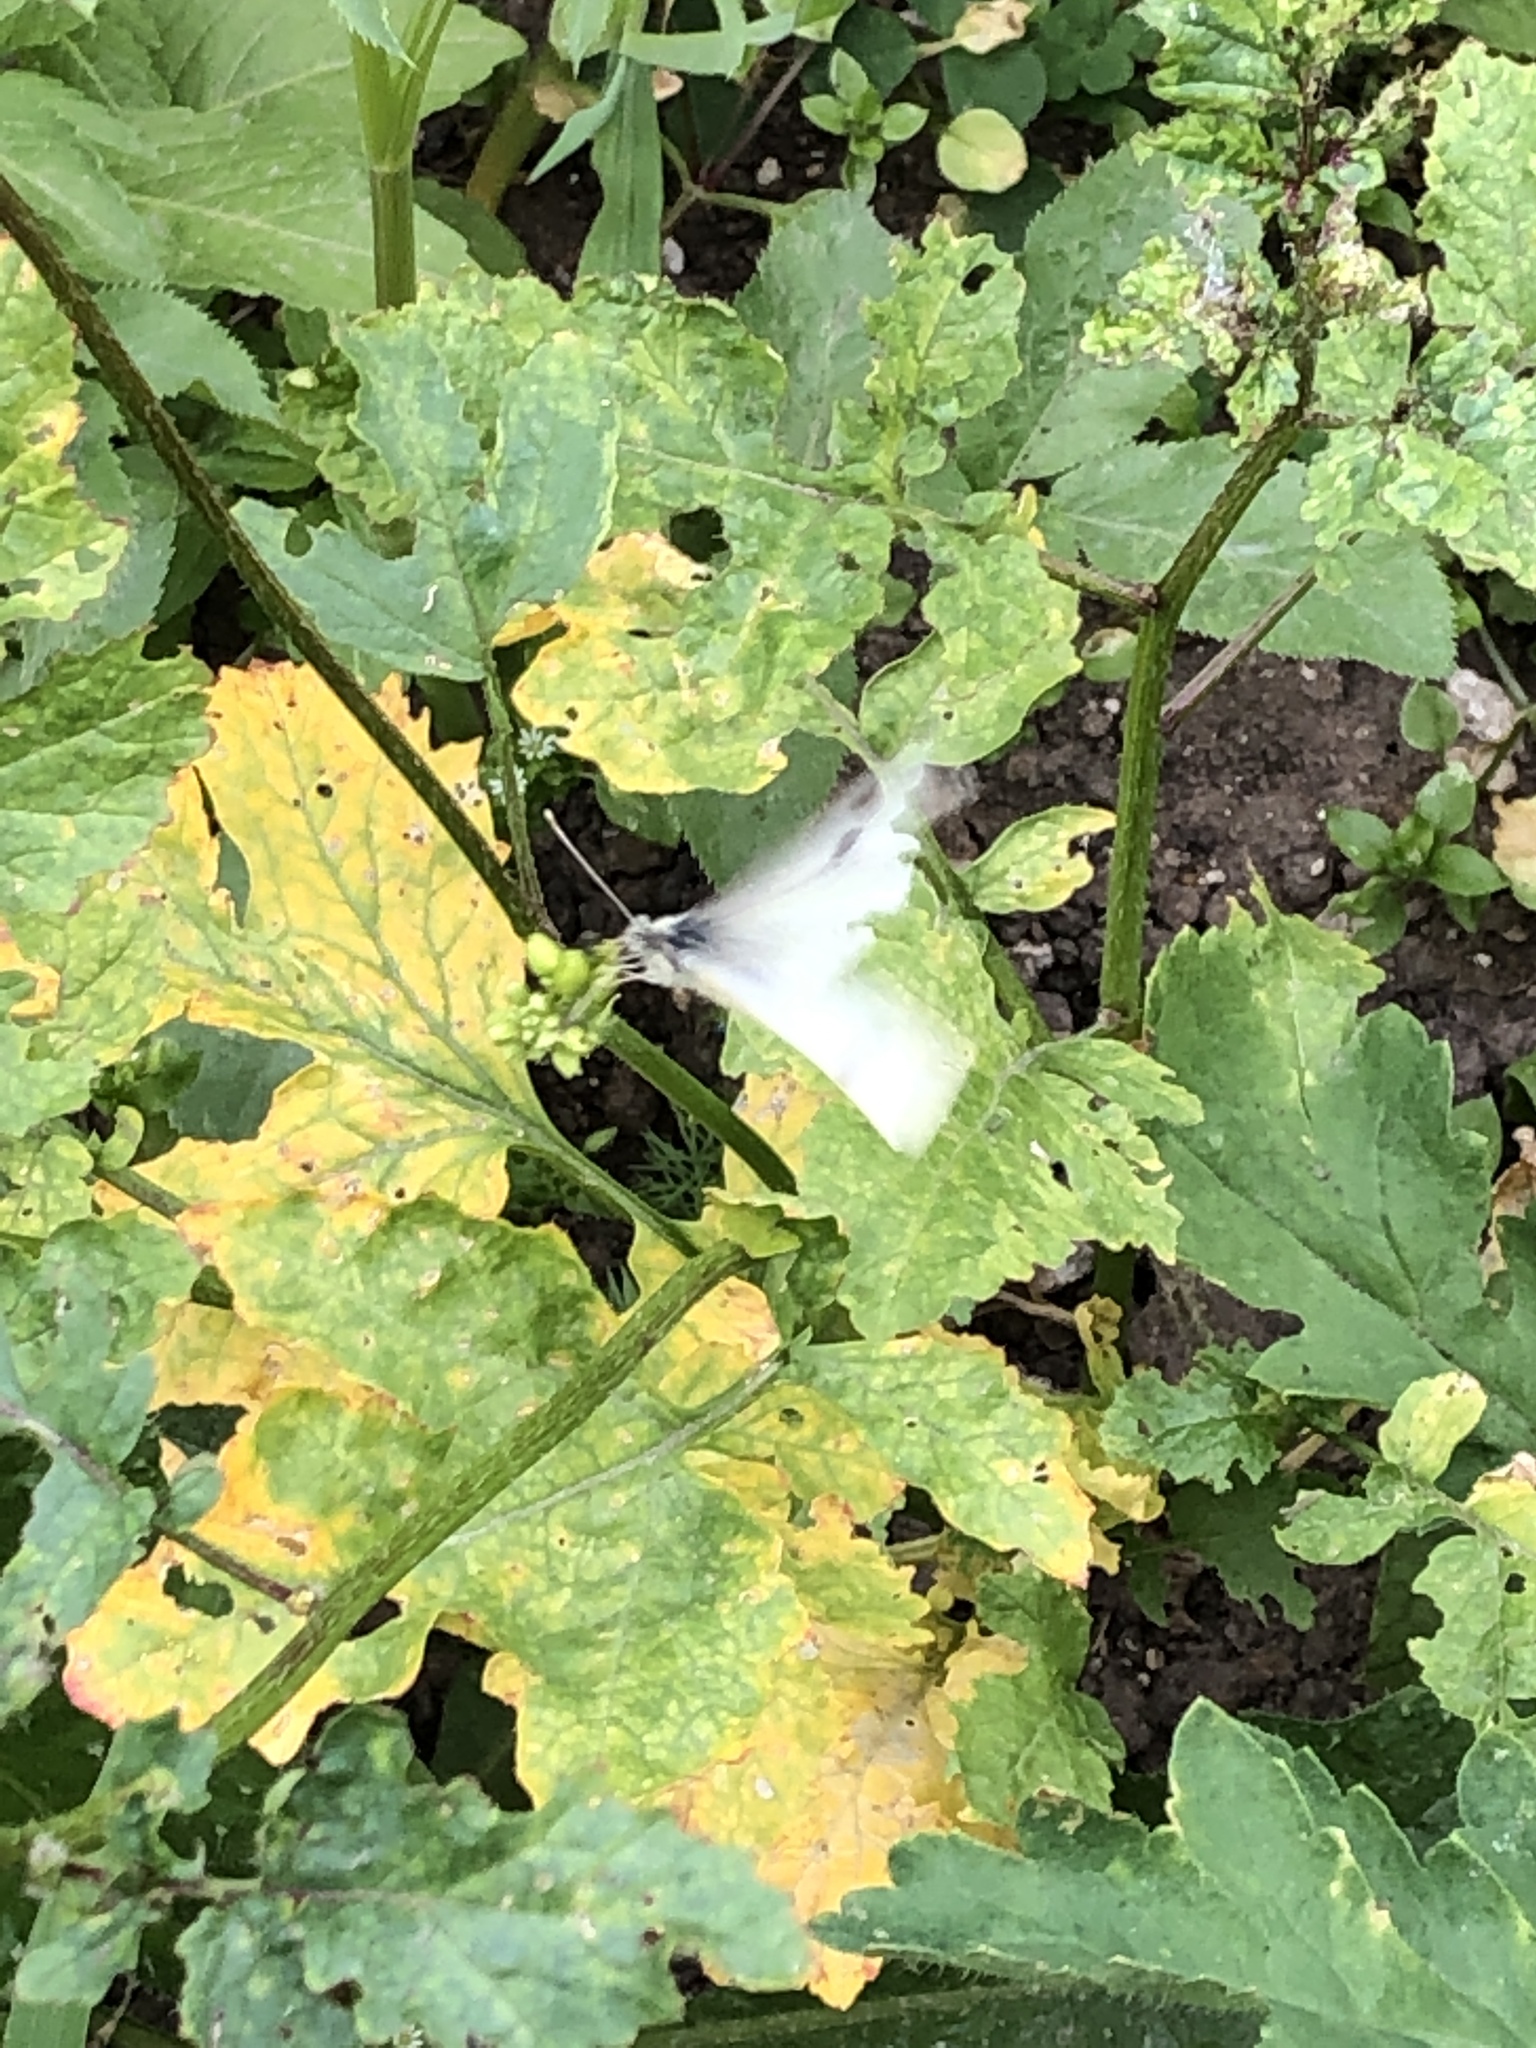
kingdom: Animalia
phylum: Arthropoda
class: Insecta
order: Lepidoptera
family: Pieridae
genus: Pieris
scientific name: Pieris rapae
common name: Small white
